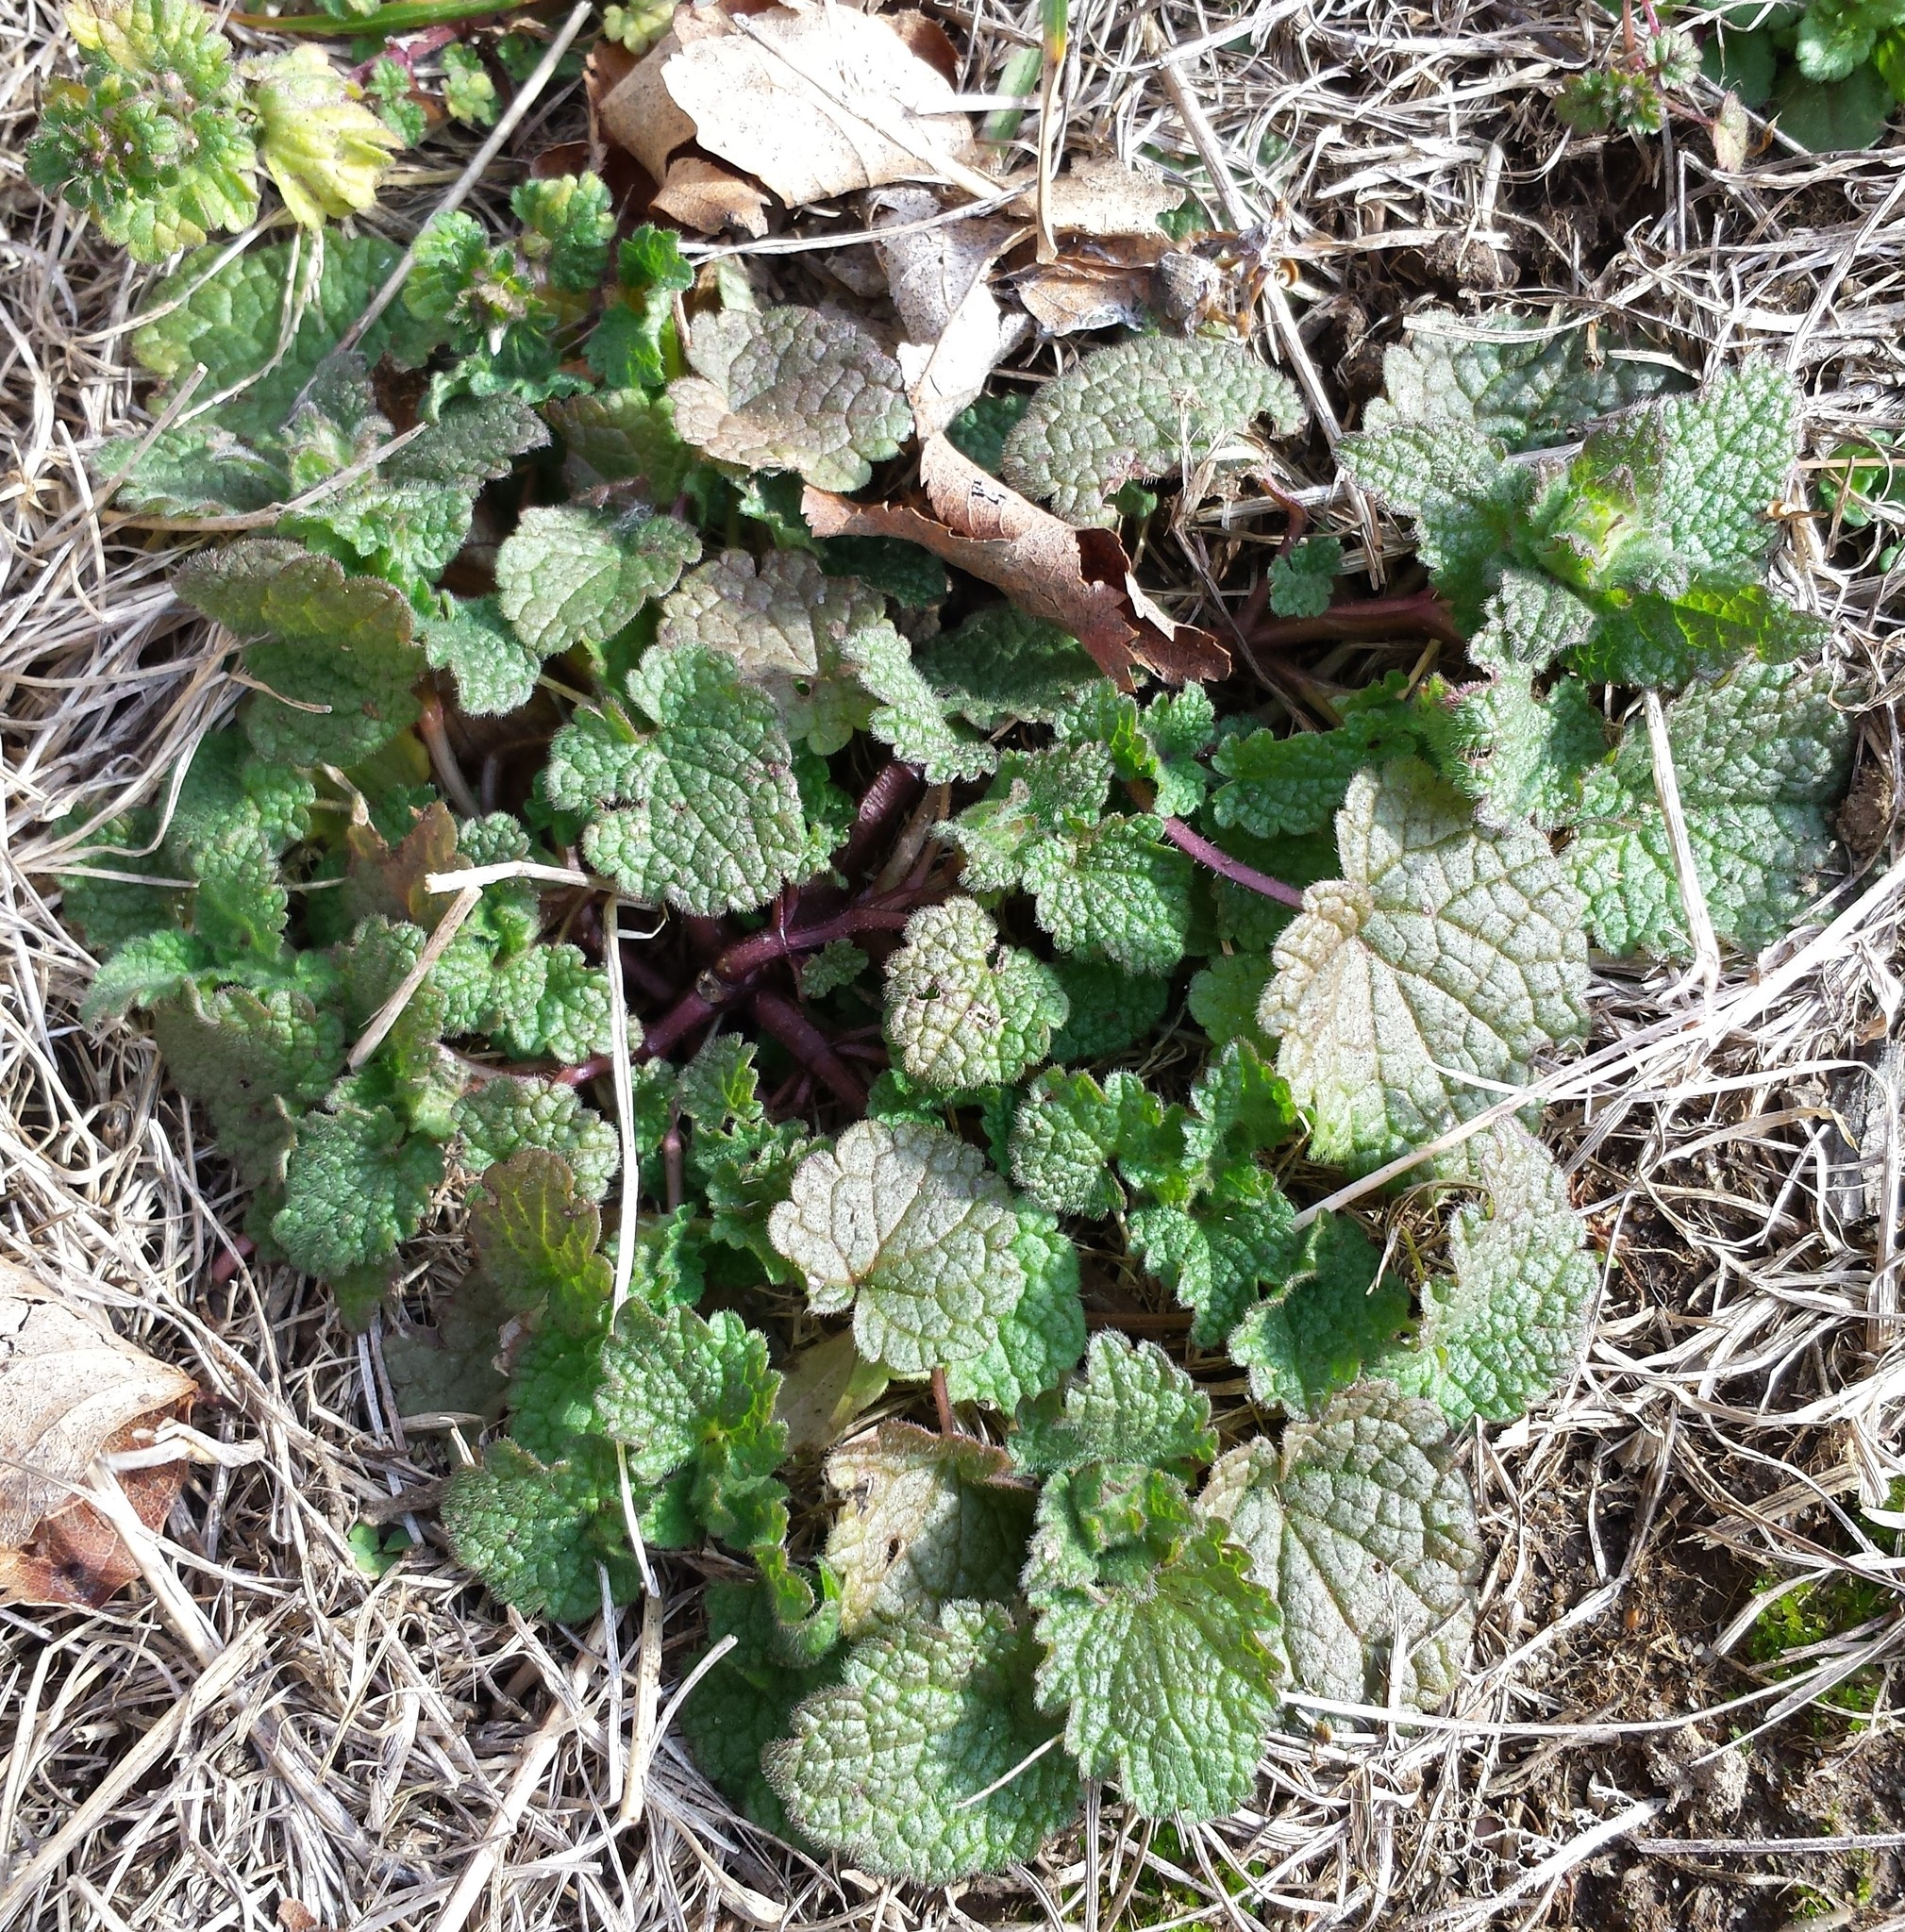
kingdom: Plantae
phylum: Tracheophyta
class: Magnoliopsida
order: Lamiales
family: Lamiaceae
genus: Lamium
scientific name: Lamium purpureum
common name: Red dead-nettle
